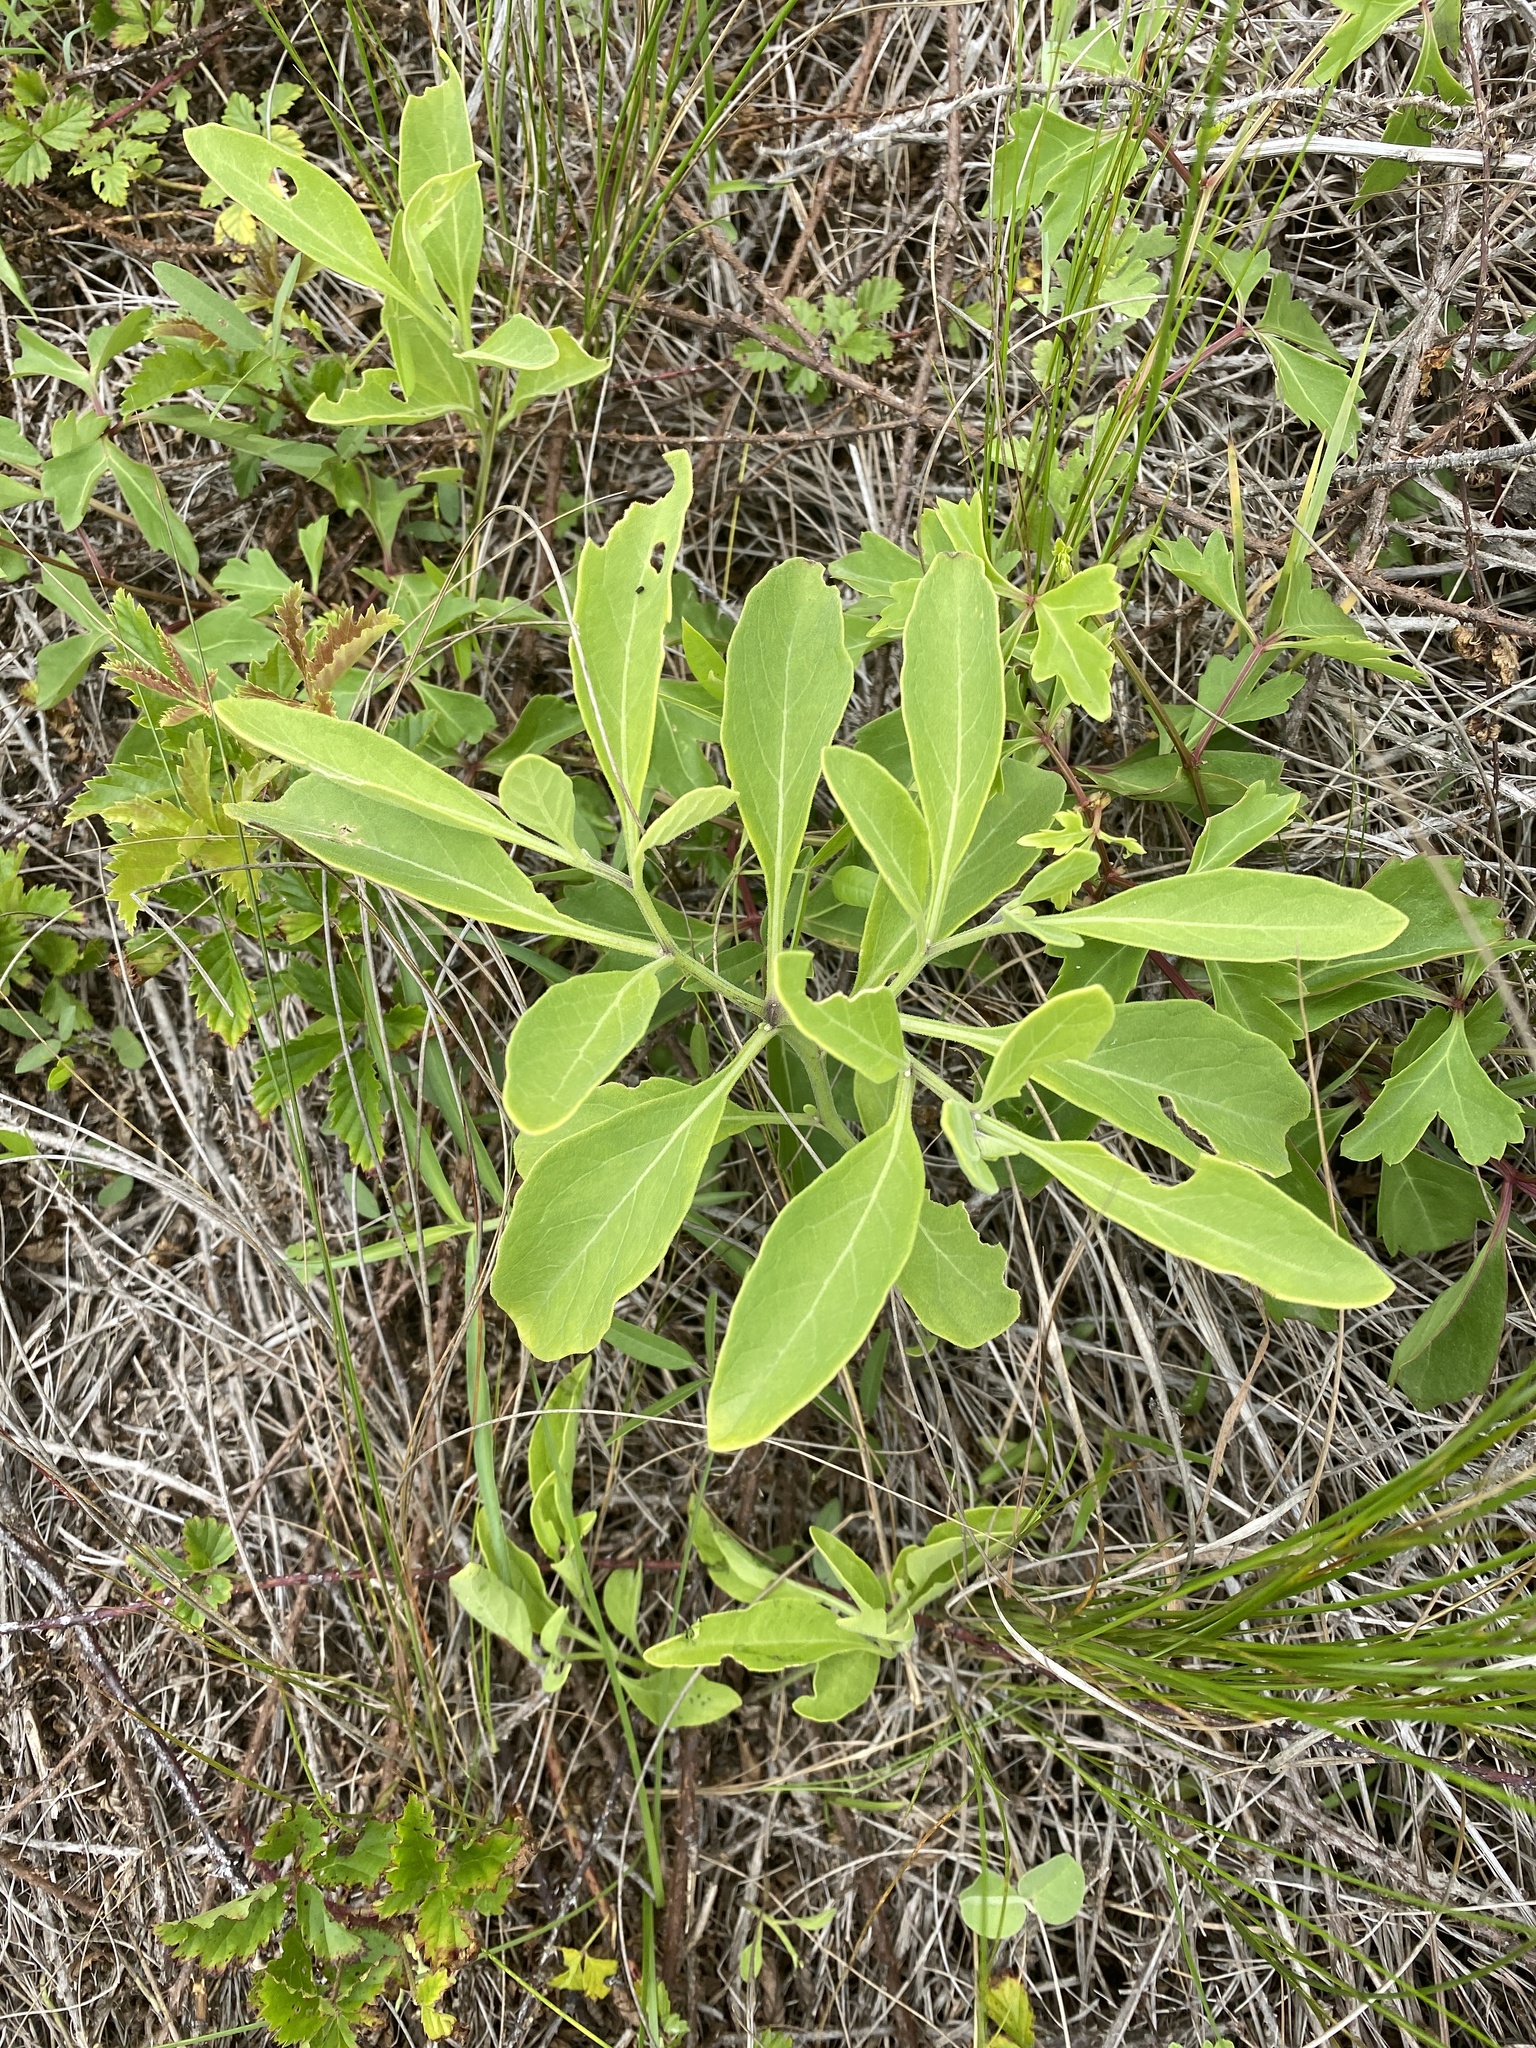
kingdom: Plantae
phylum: Tracheophyta
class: Magnoliopsida
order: Asterales
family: Asteraceae
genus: Borrichia
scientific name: Borrichia frutescens
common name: Sea oxeye
